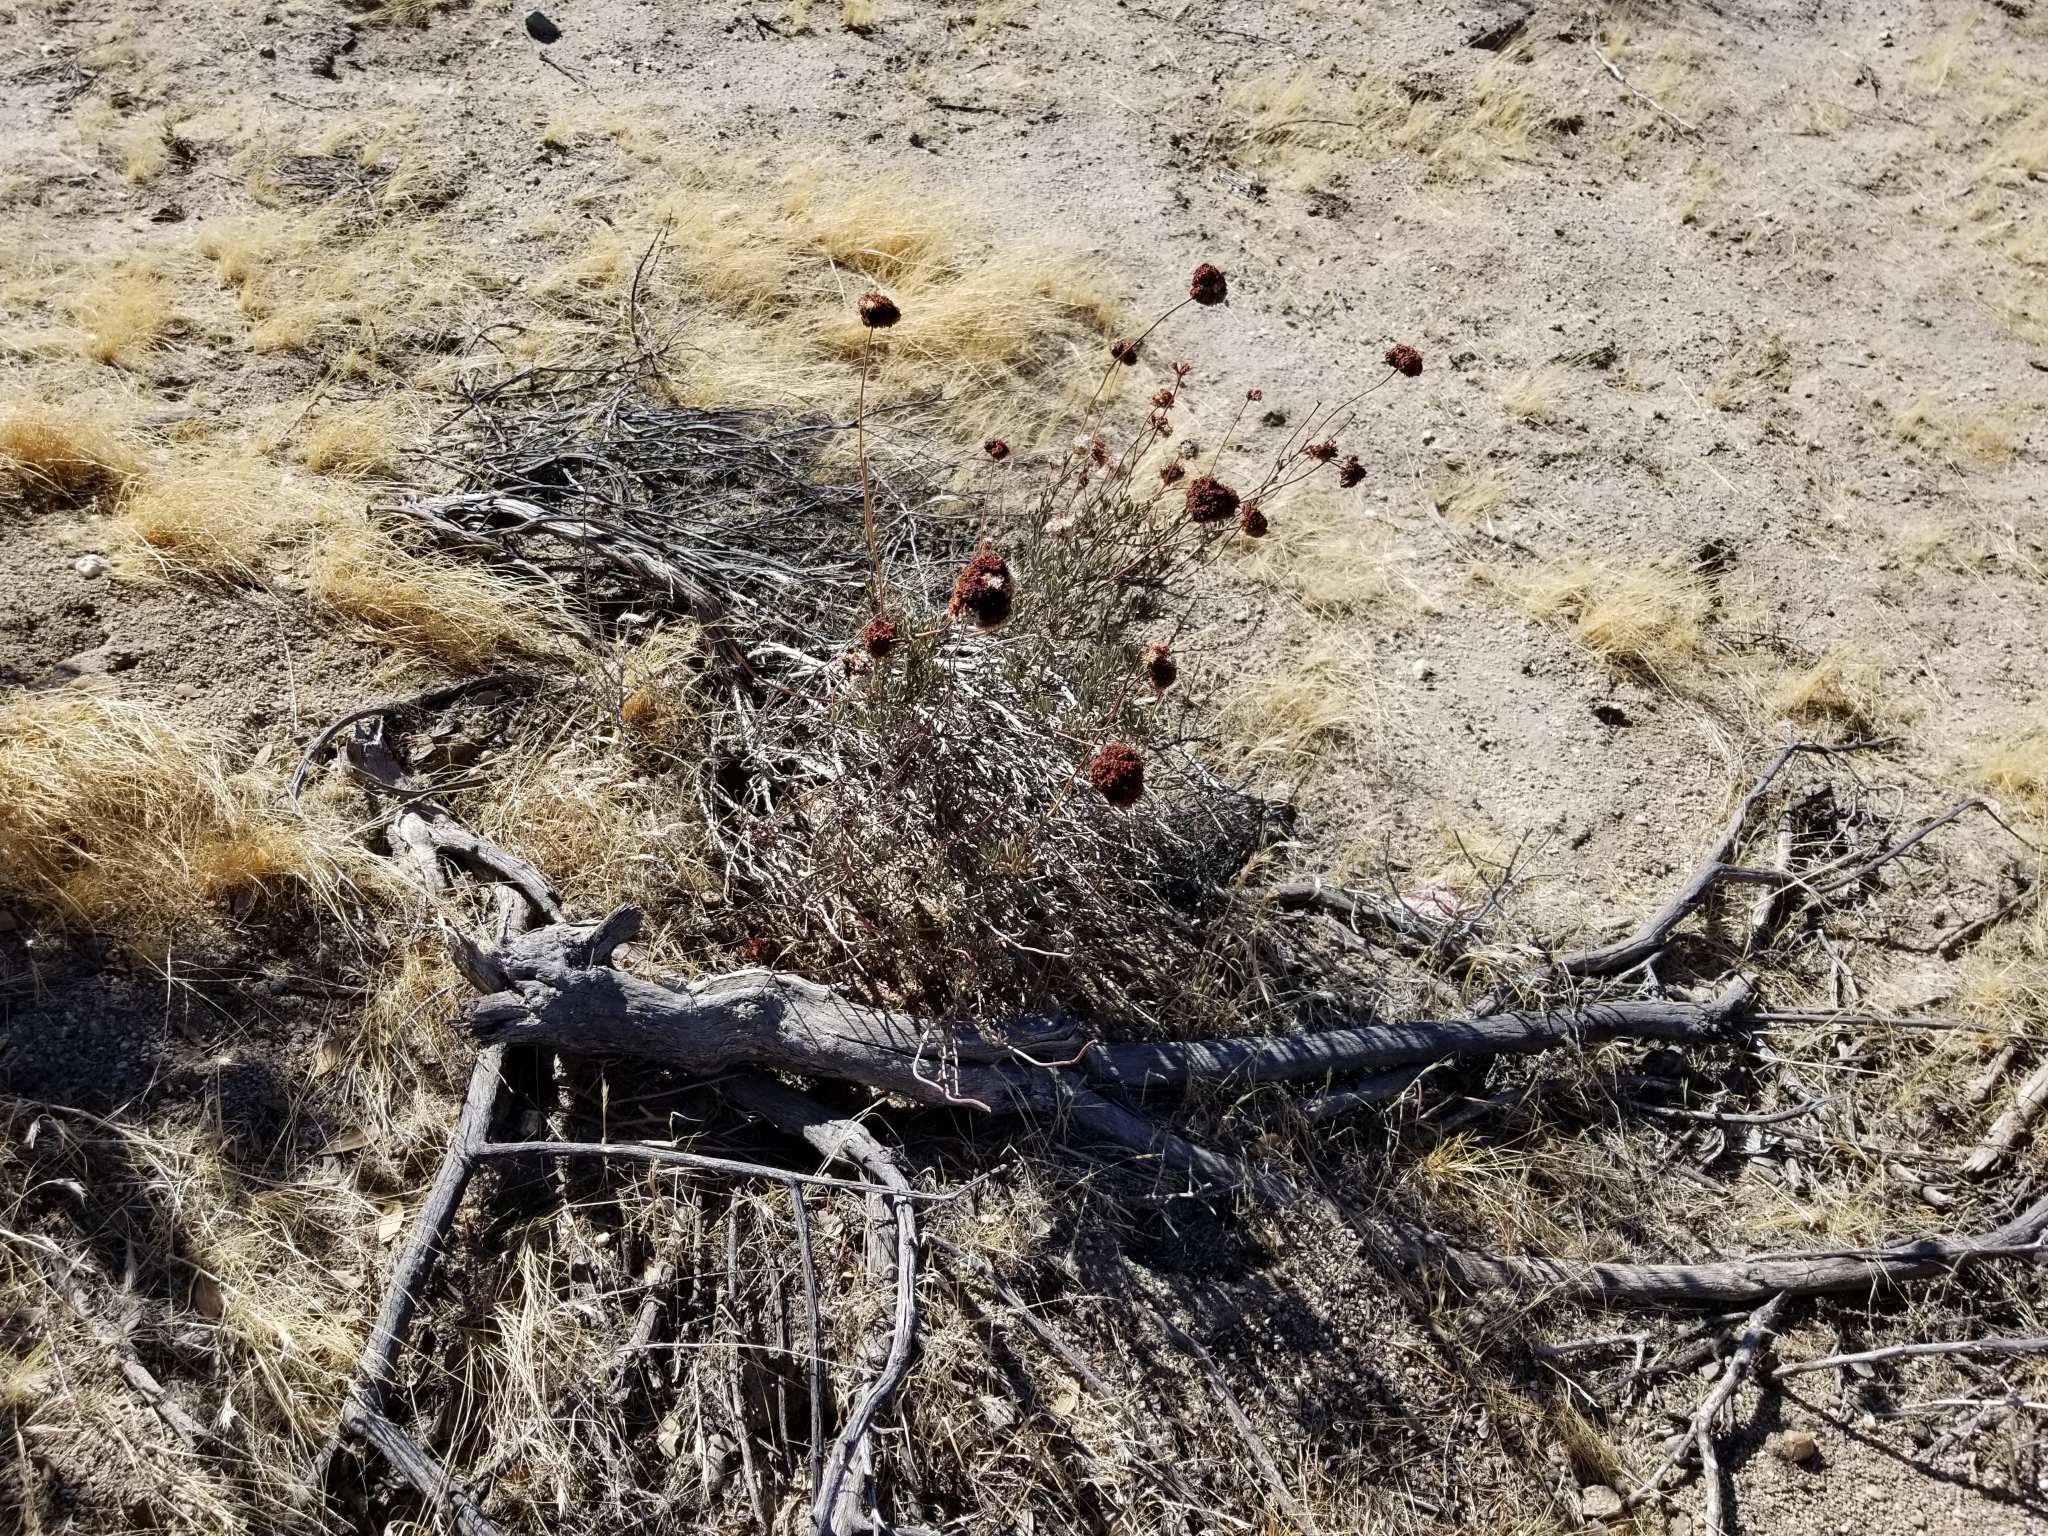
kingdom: Plantae
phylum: Tracheophyta
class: Magnoliopsida
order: Caryophyllales
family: Polygonaceae
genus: Eriogonum
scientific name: Eriogonum fasciculatum
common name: California wild buckwheat
